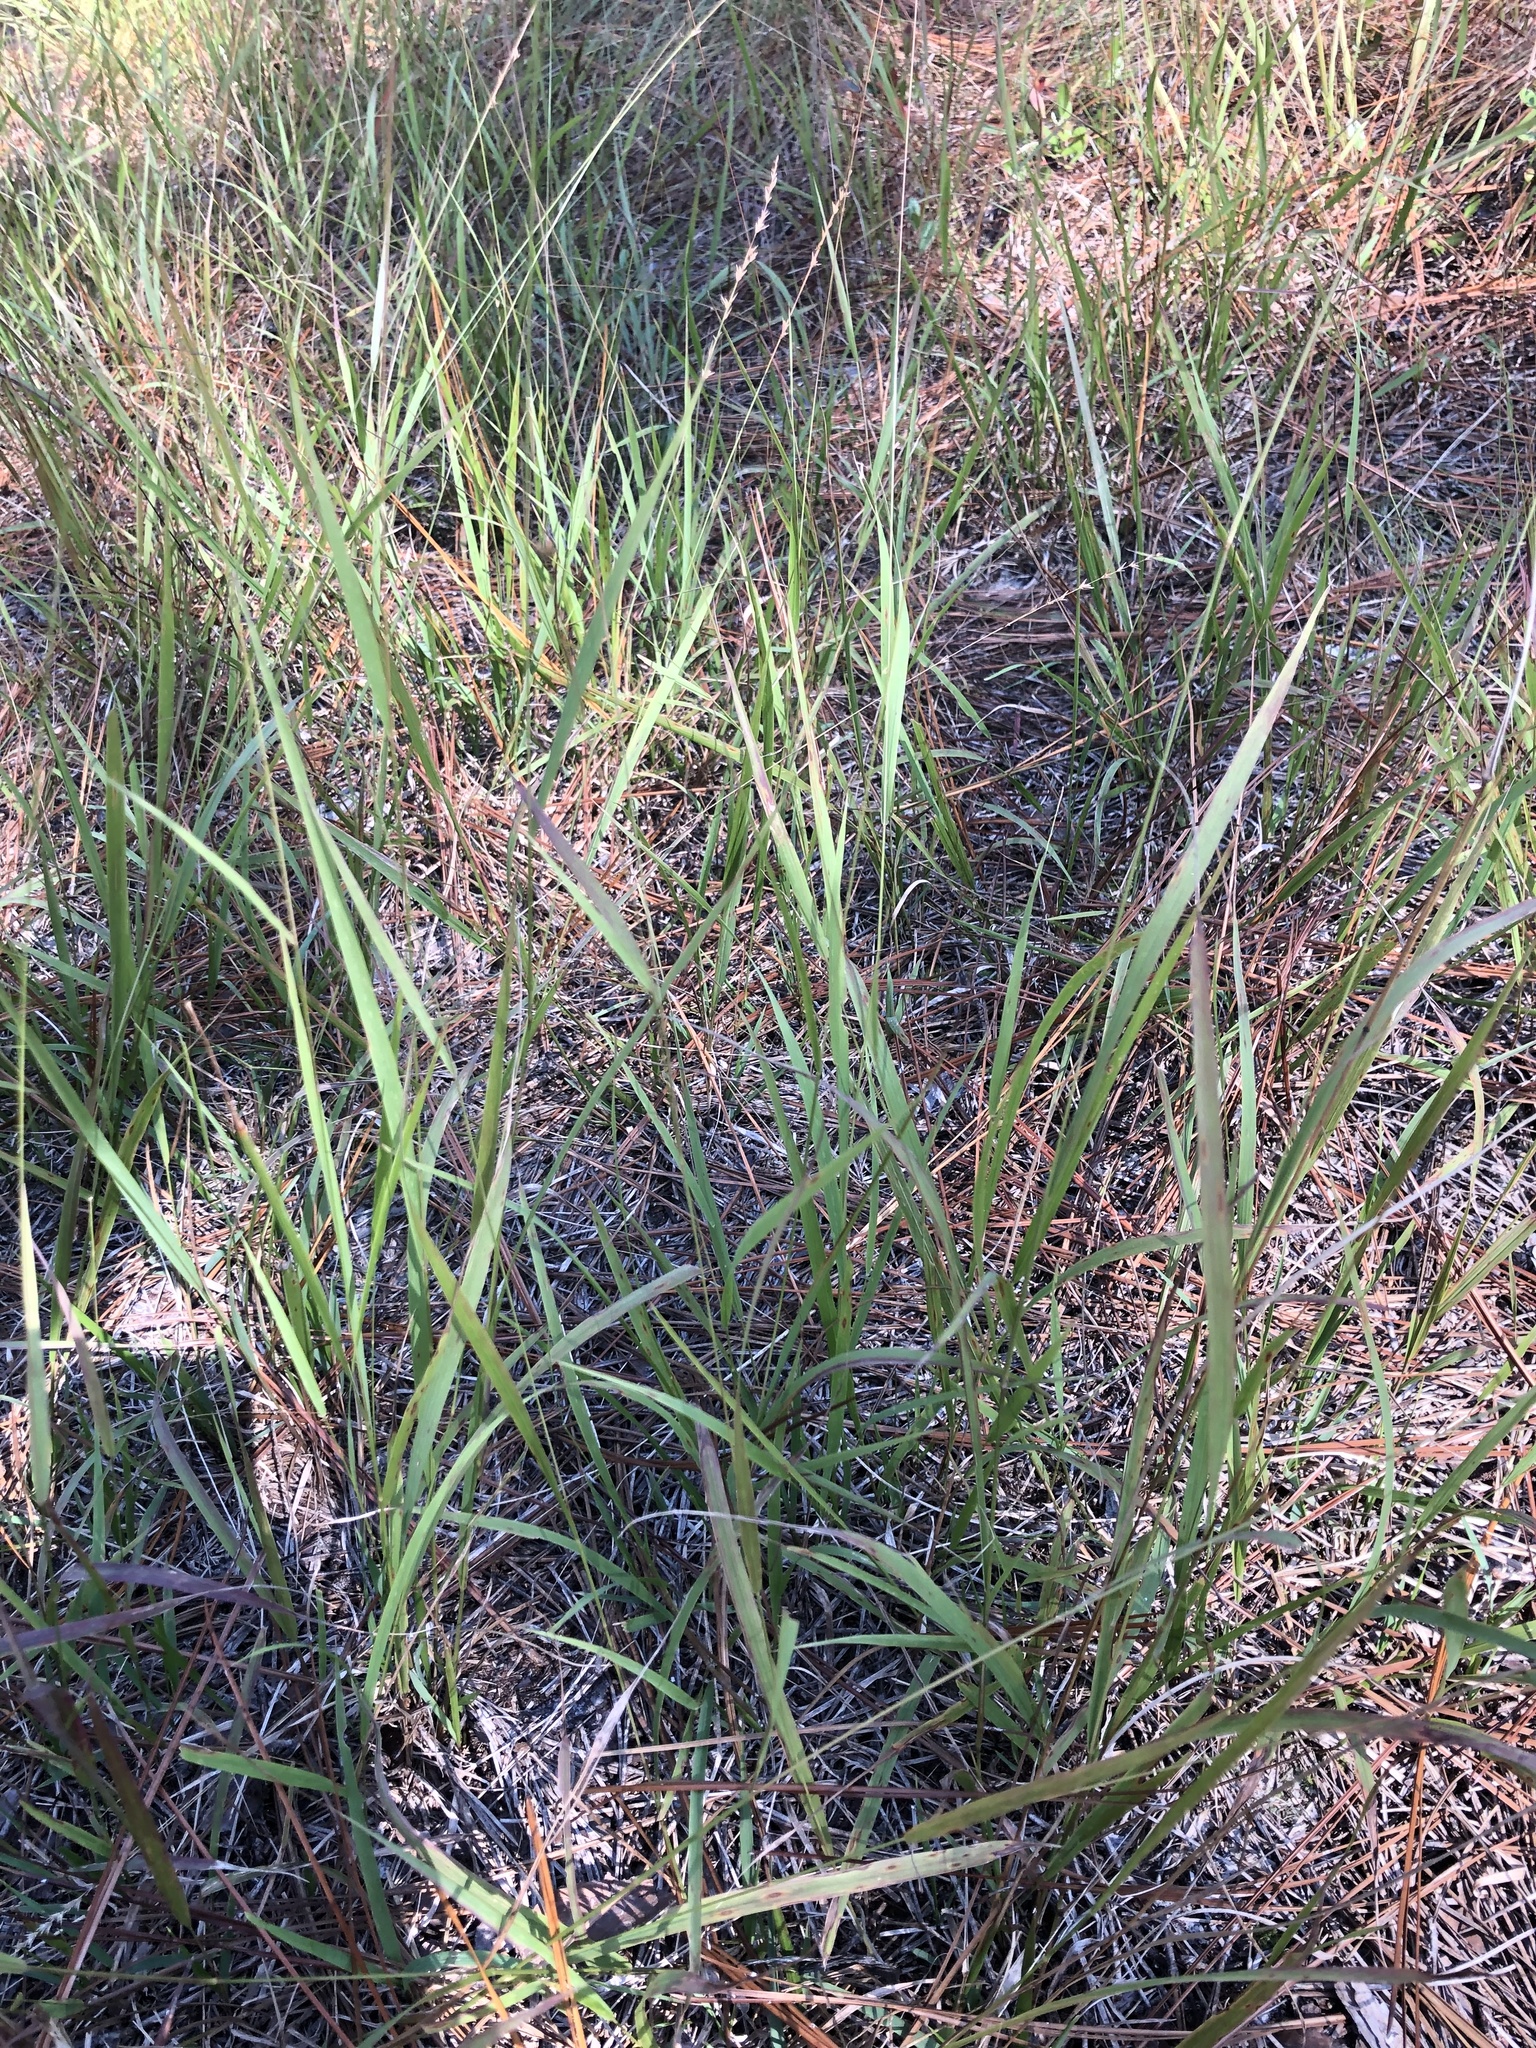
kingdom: Plantae
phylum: Tracheophyta
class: Liliopsida
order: Poales
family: Poaceae
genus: Chasmanthium
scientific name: Chasmanthium laxum
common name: Slender chasmanthium
